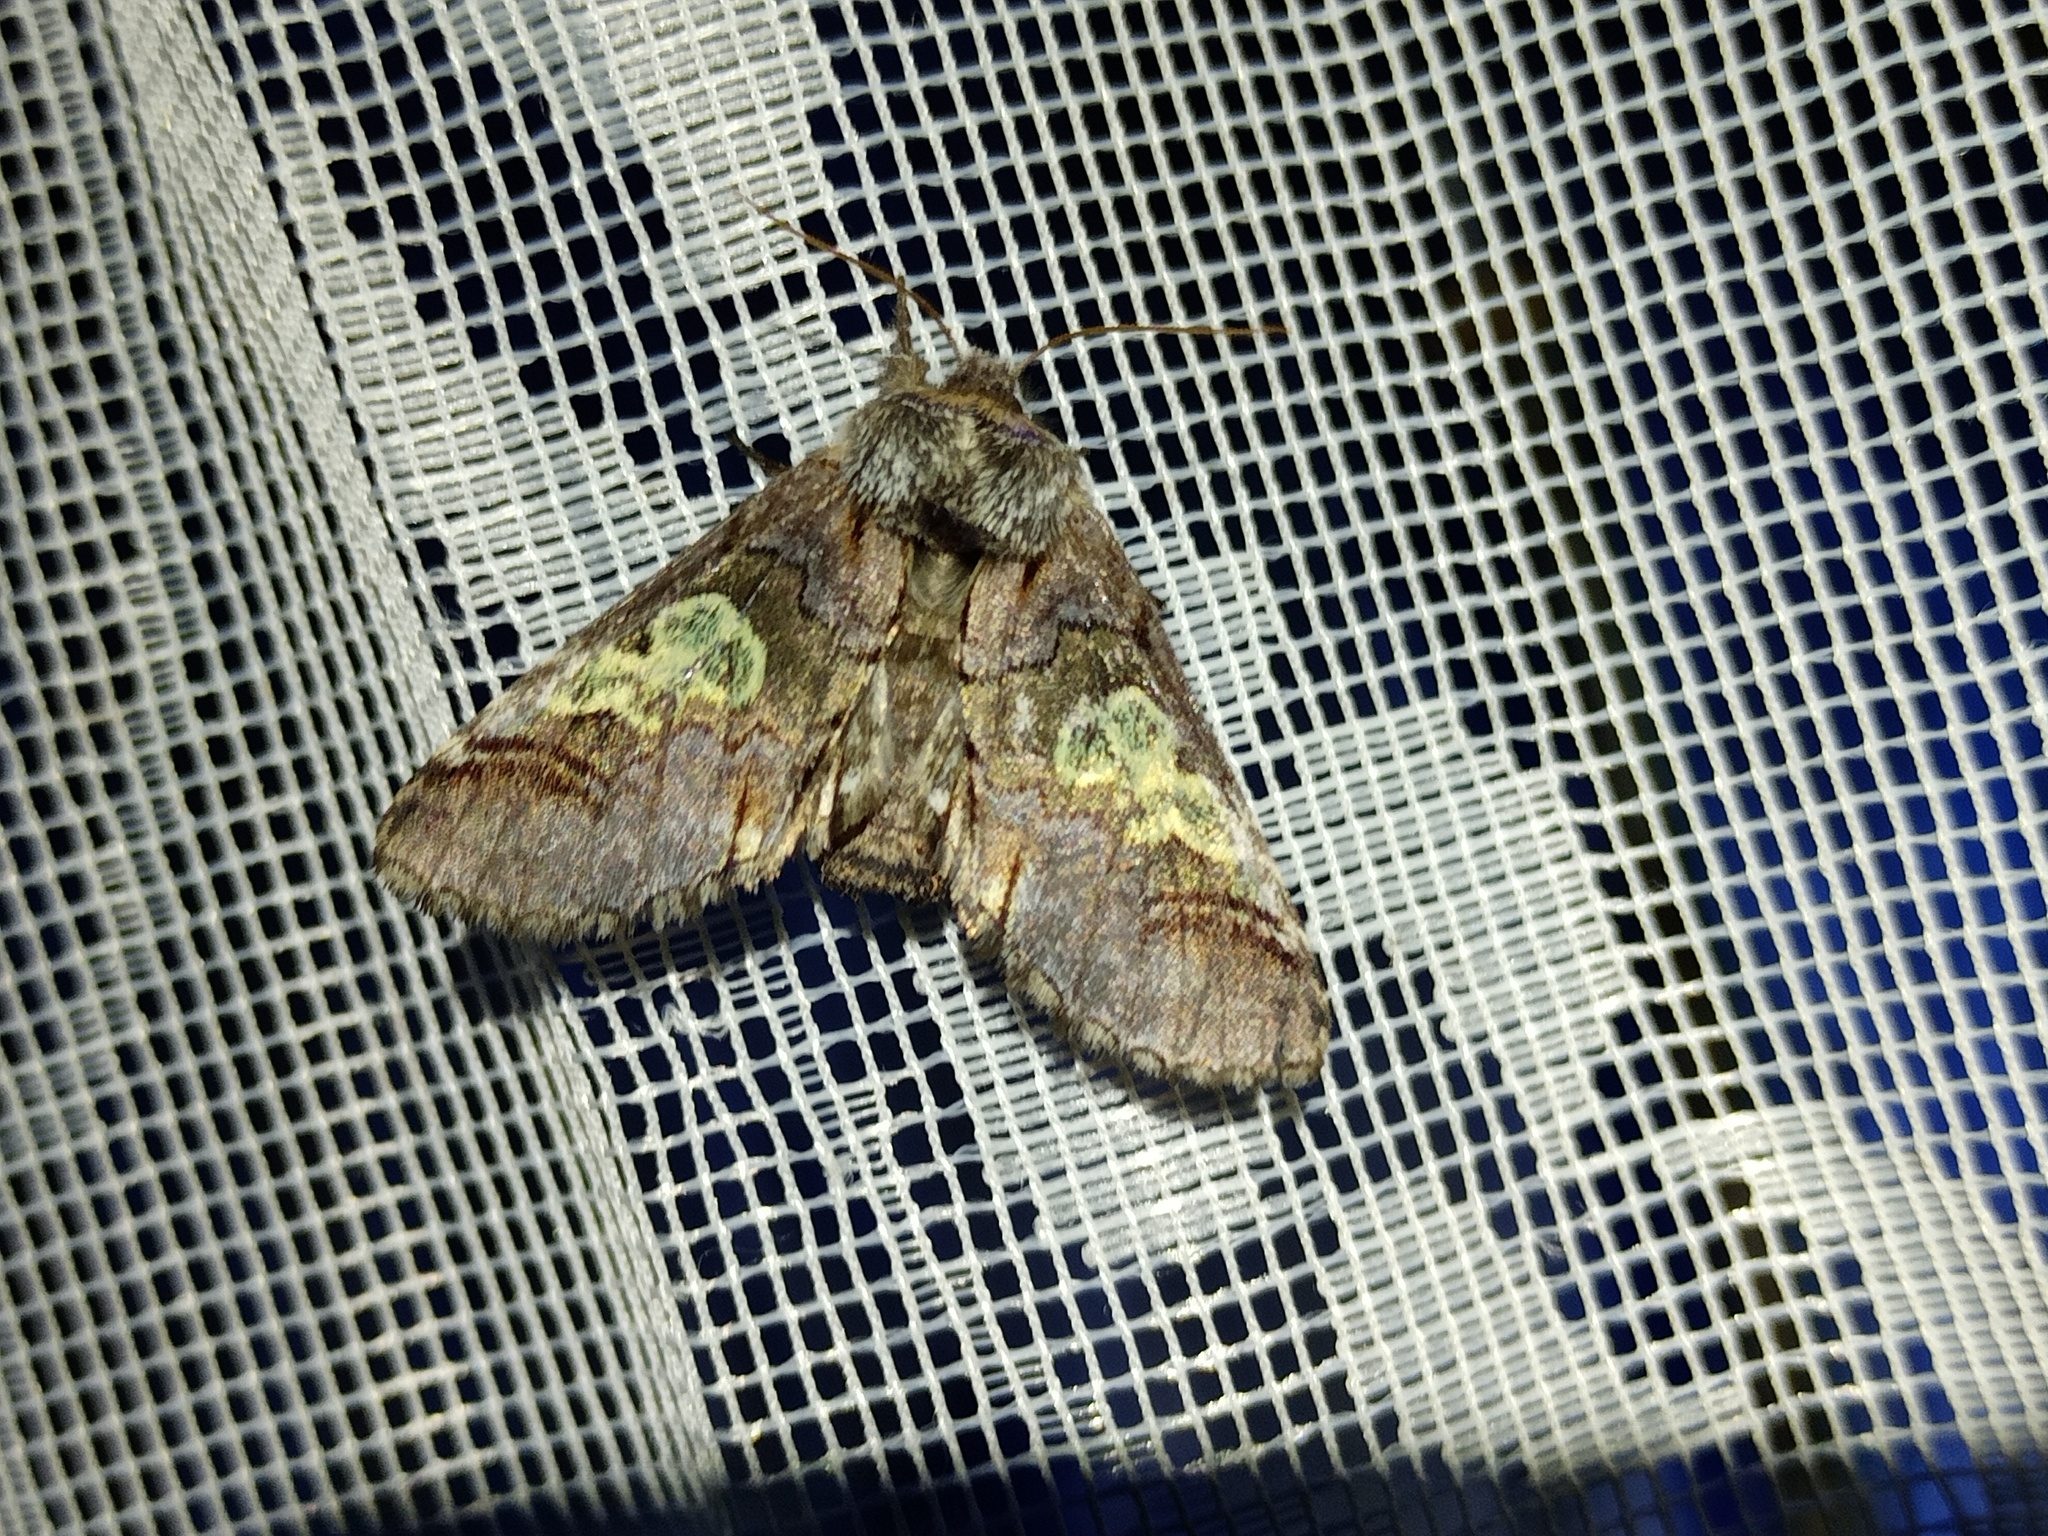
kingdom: Animalia
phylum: Arthropoda
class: Insecta
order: Lepidoptera
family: Noctuidae
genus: Diloba
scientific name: Diloba caeruleocephala
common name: Figure of eight
